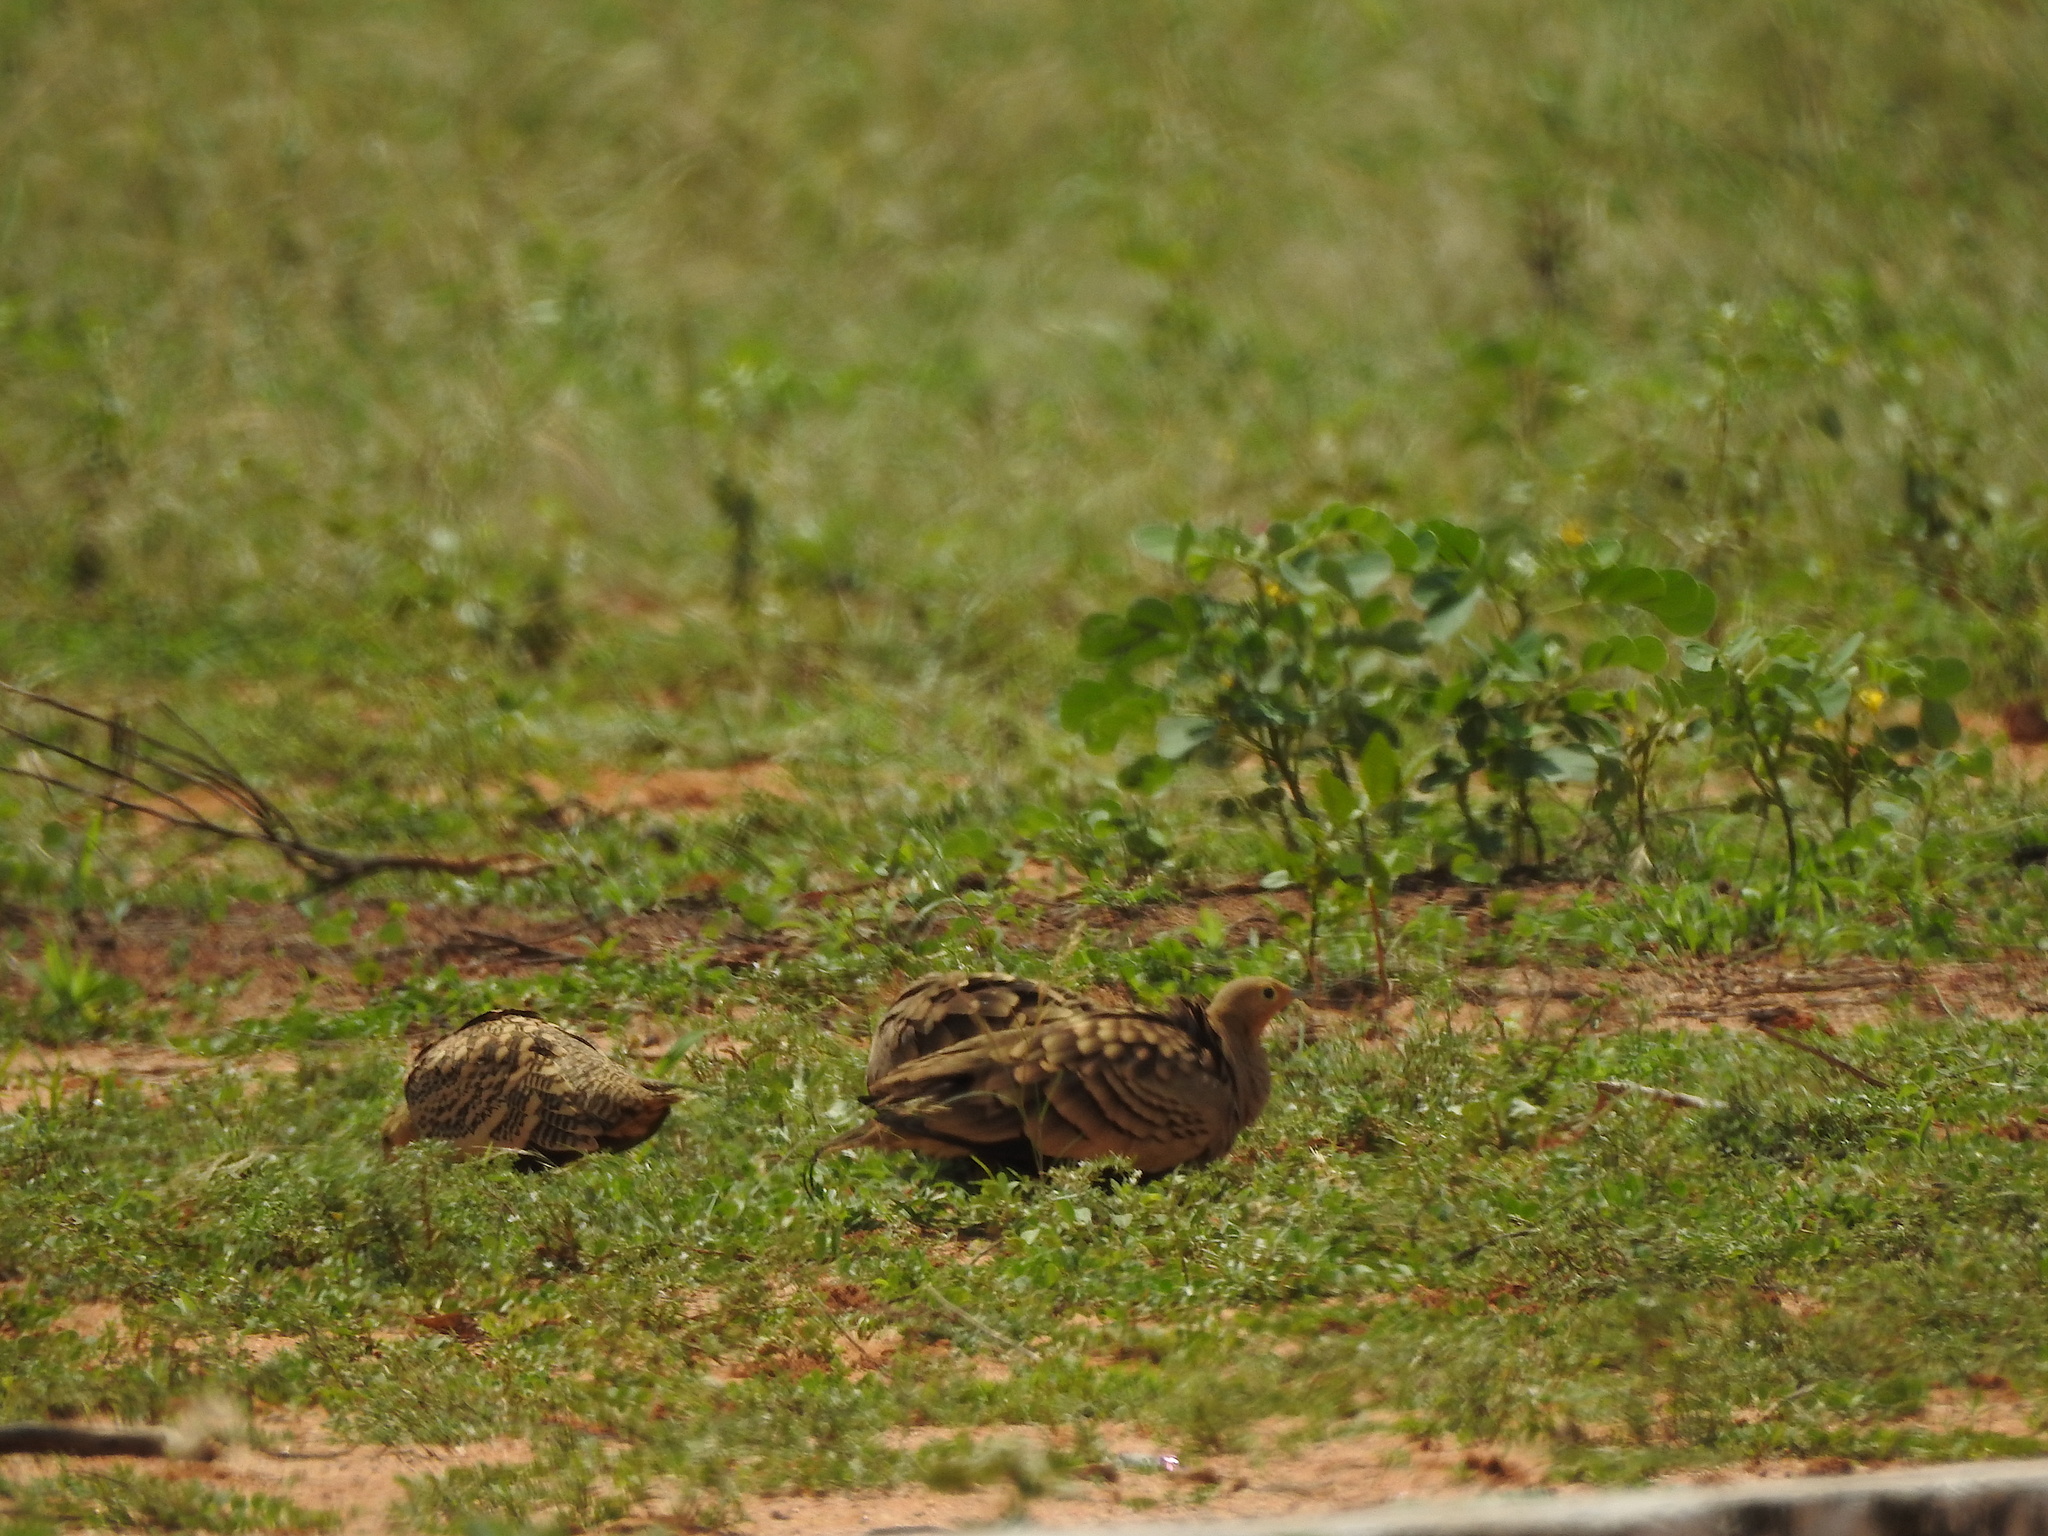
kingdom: Animalia
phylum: Chordata
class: Aves
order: Pteroclidiformes
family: Pteroclididae
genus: Pterocles
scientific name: Pterocles exustus
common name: Chestnut-bellied sandgrouse
